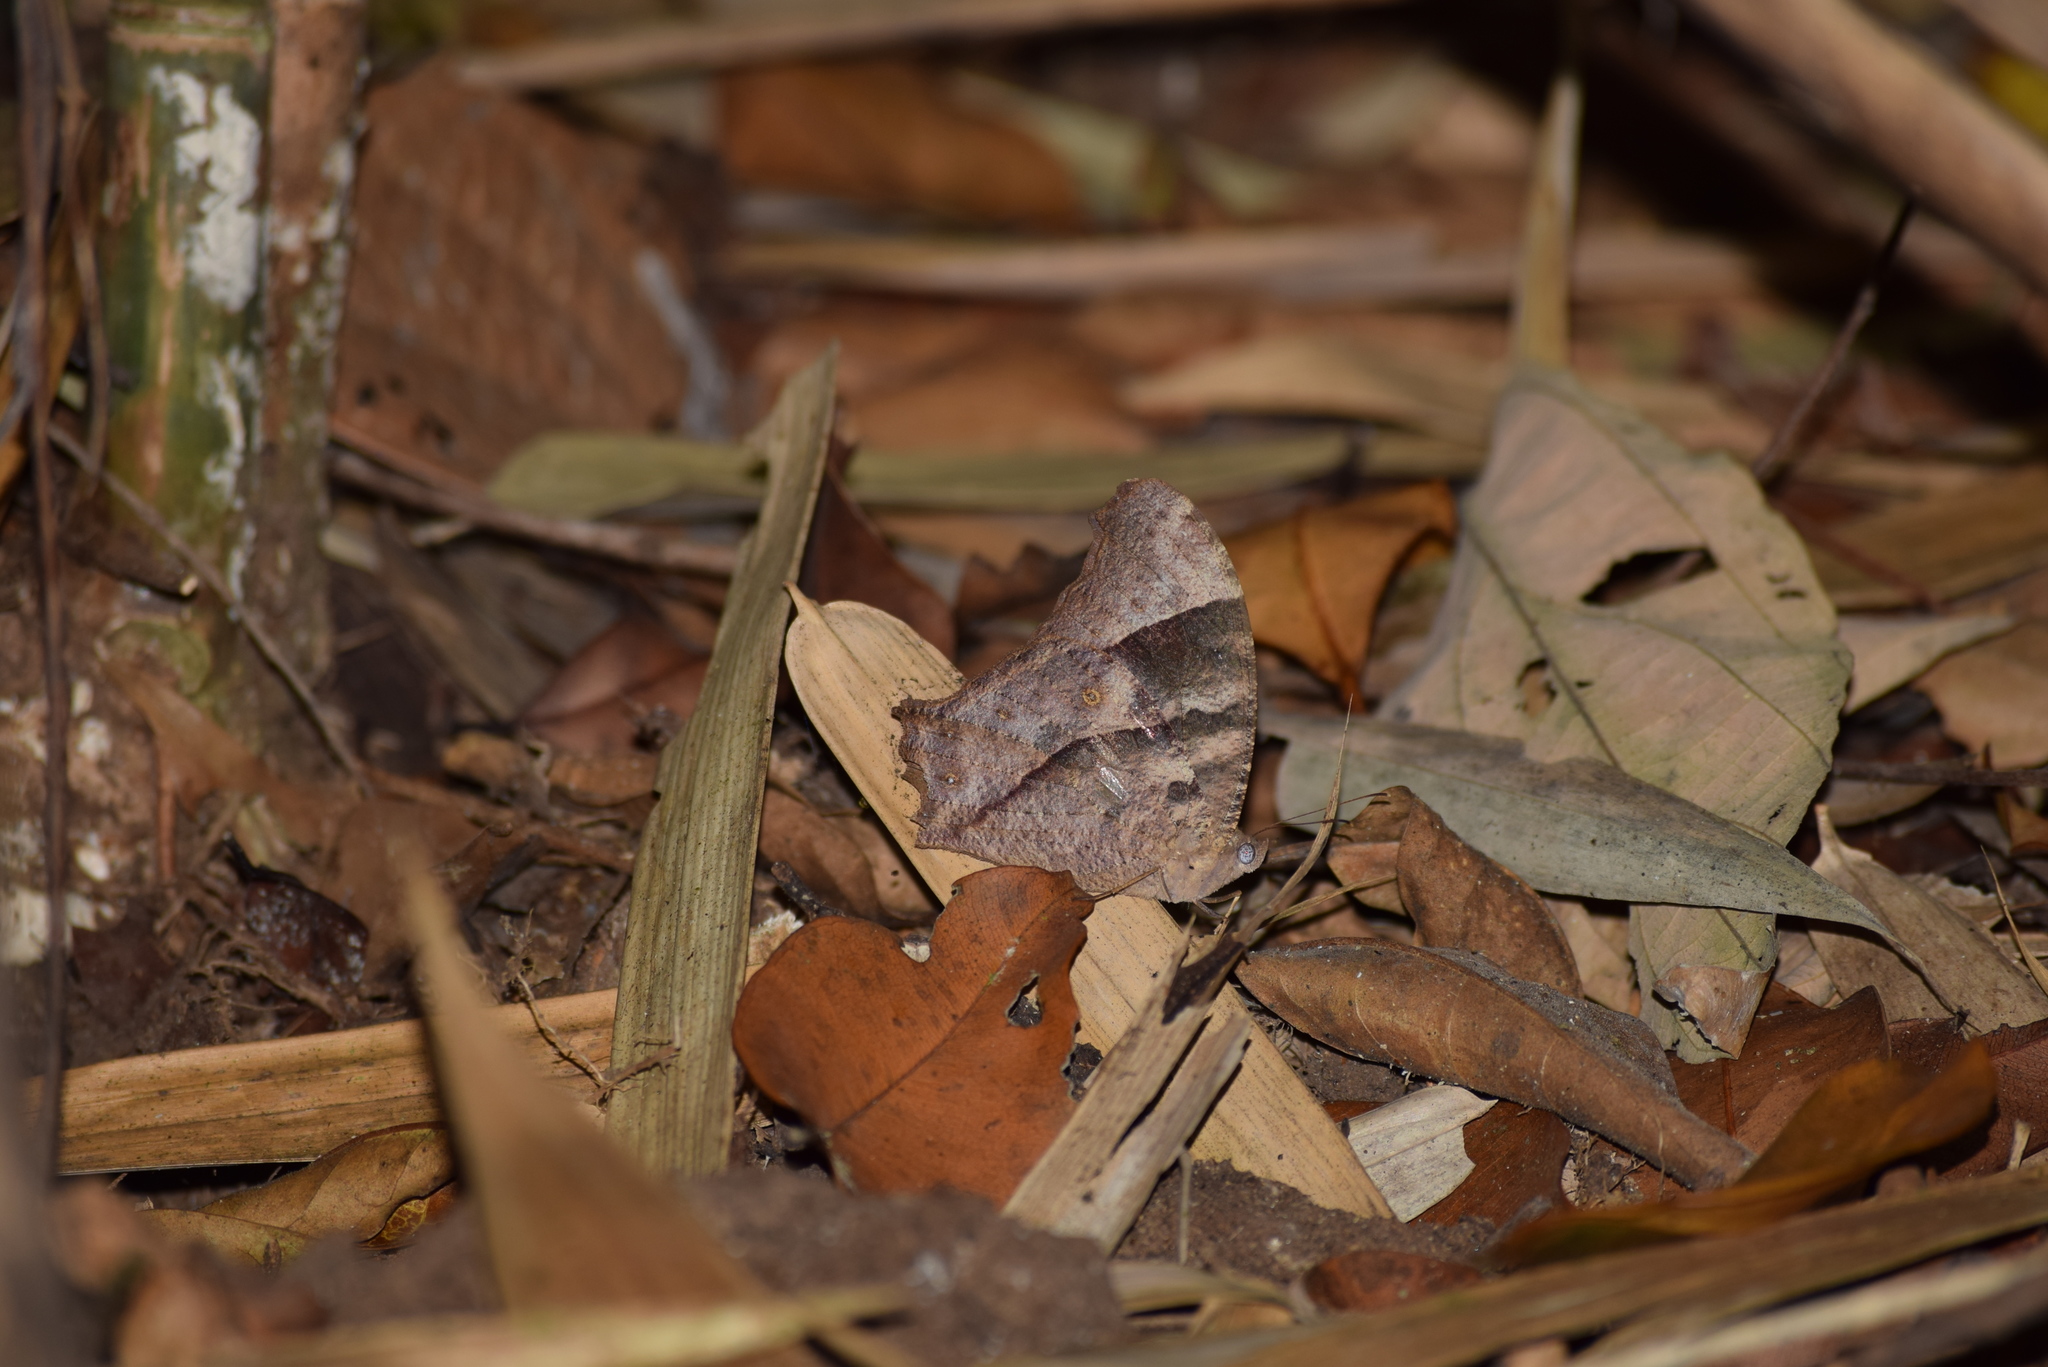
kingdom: Animalia
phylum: Arthropoda
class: Insecta
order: Lepidoptera
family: Nymphalidae
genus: Melanitis
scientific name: Melanitis phedima
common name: Dark evening brown
